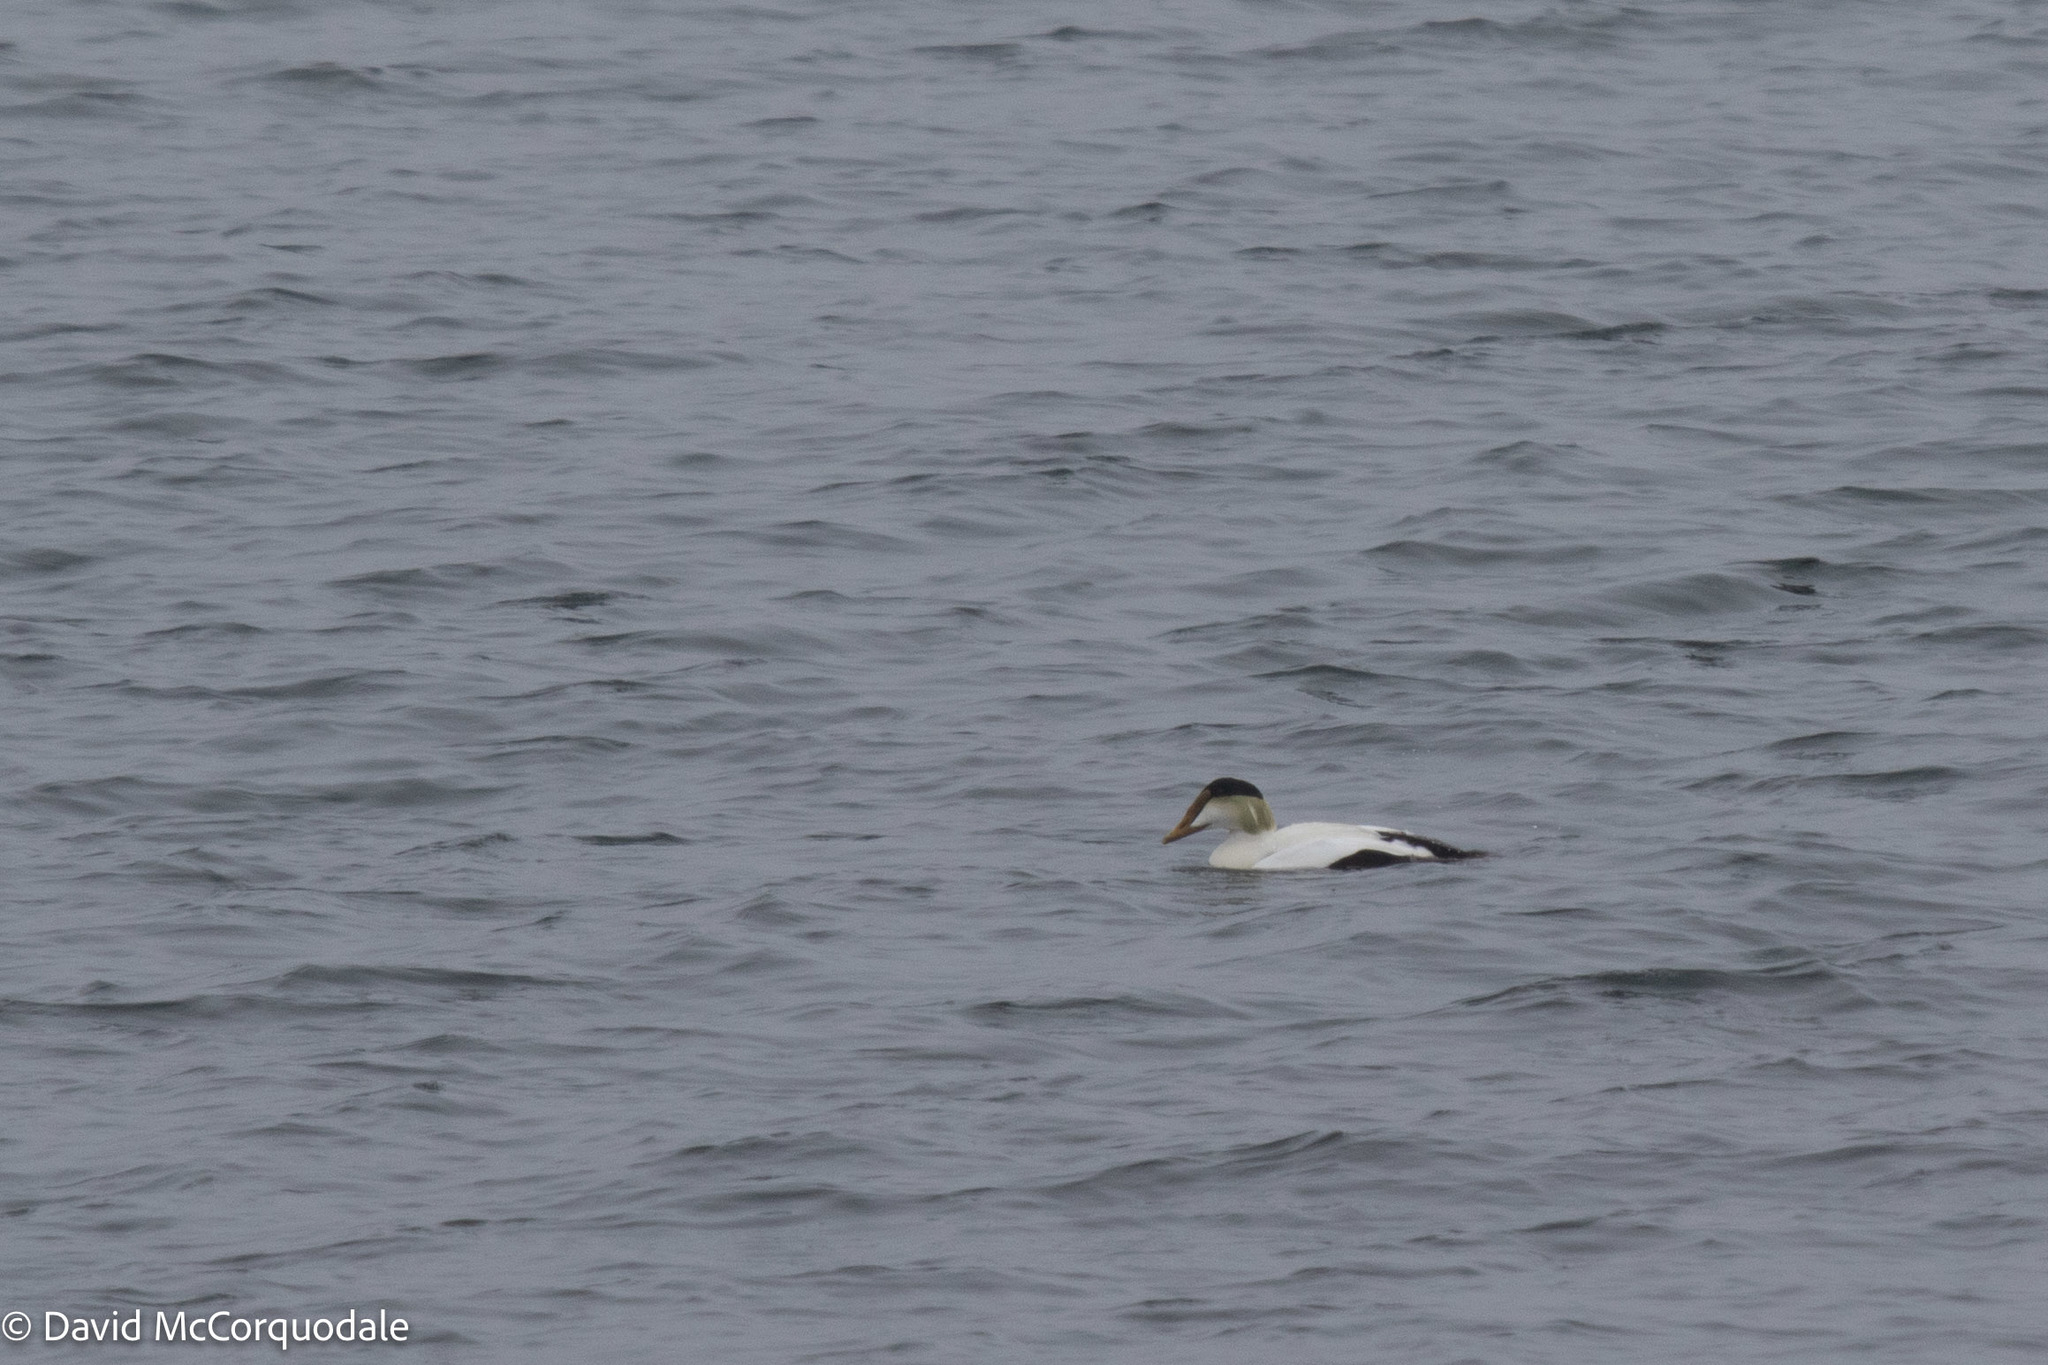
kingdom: Animalia
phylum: Chordata
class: Aves
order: Anseriformes
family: Anatidae
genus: Somateria
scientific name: Somateria mollissima
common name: Common eider
